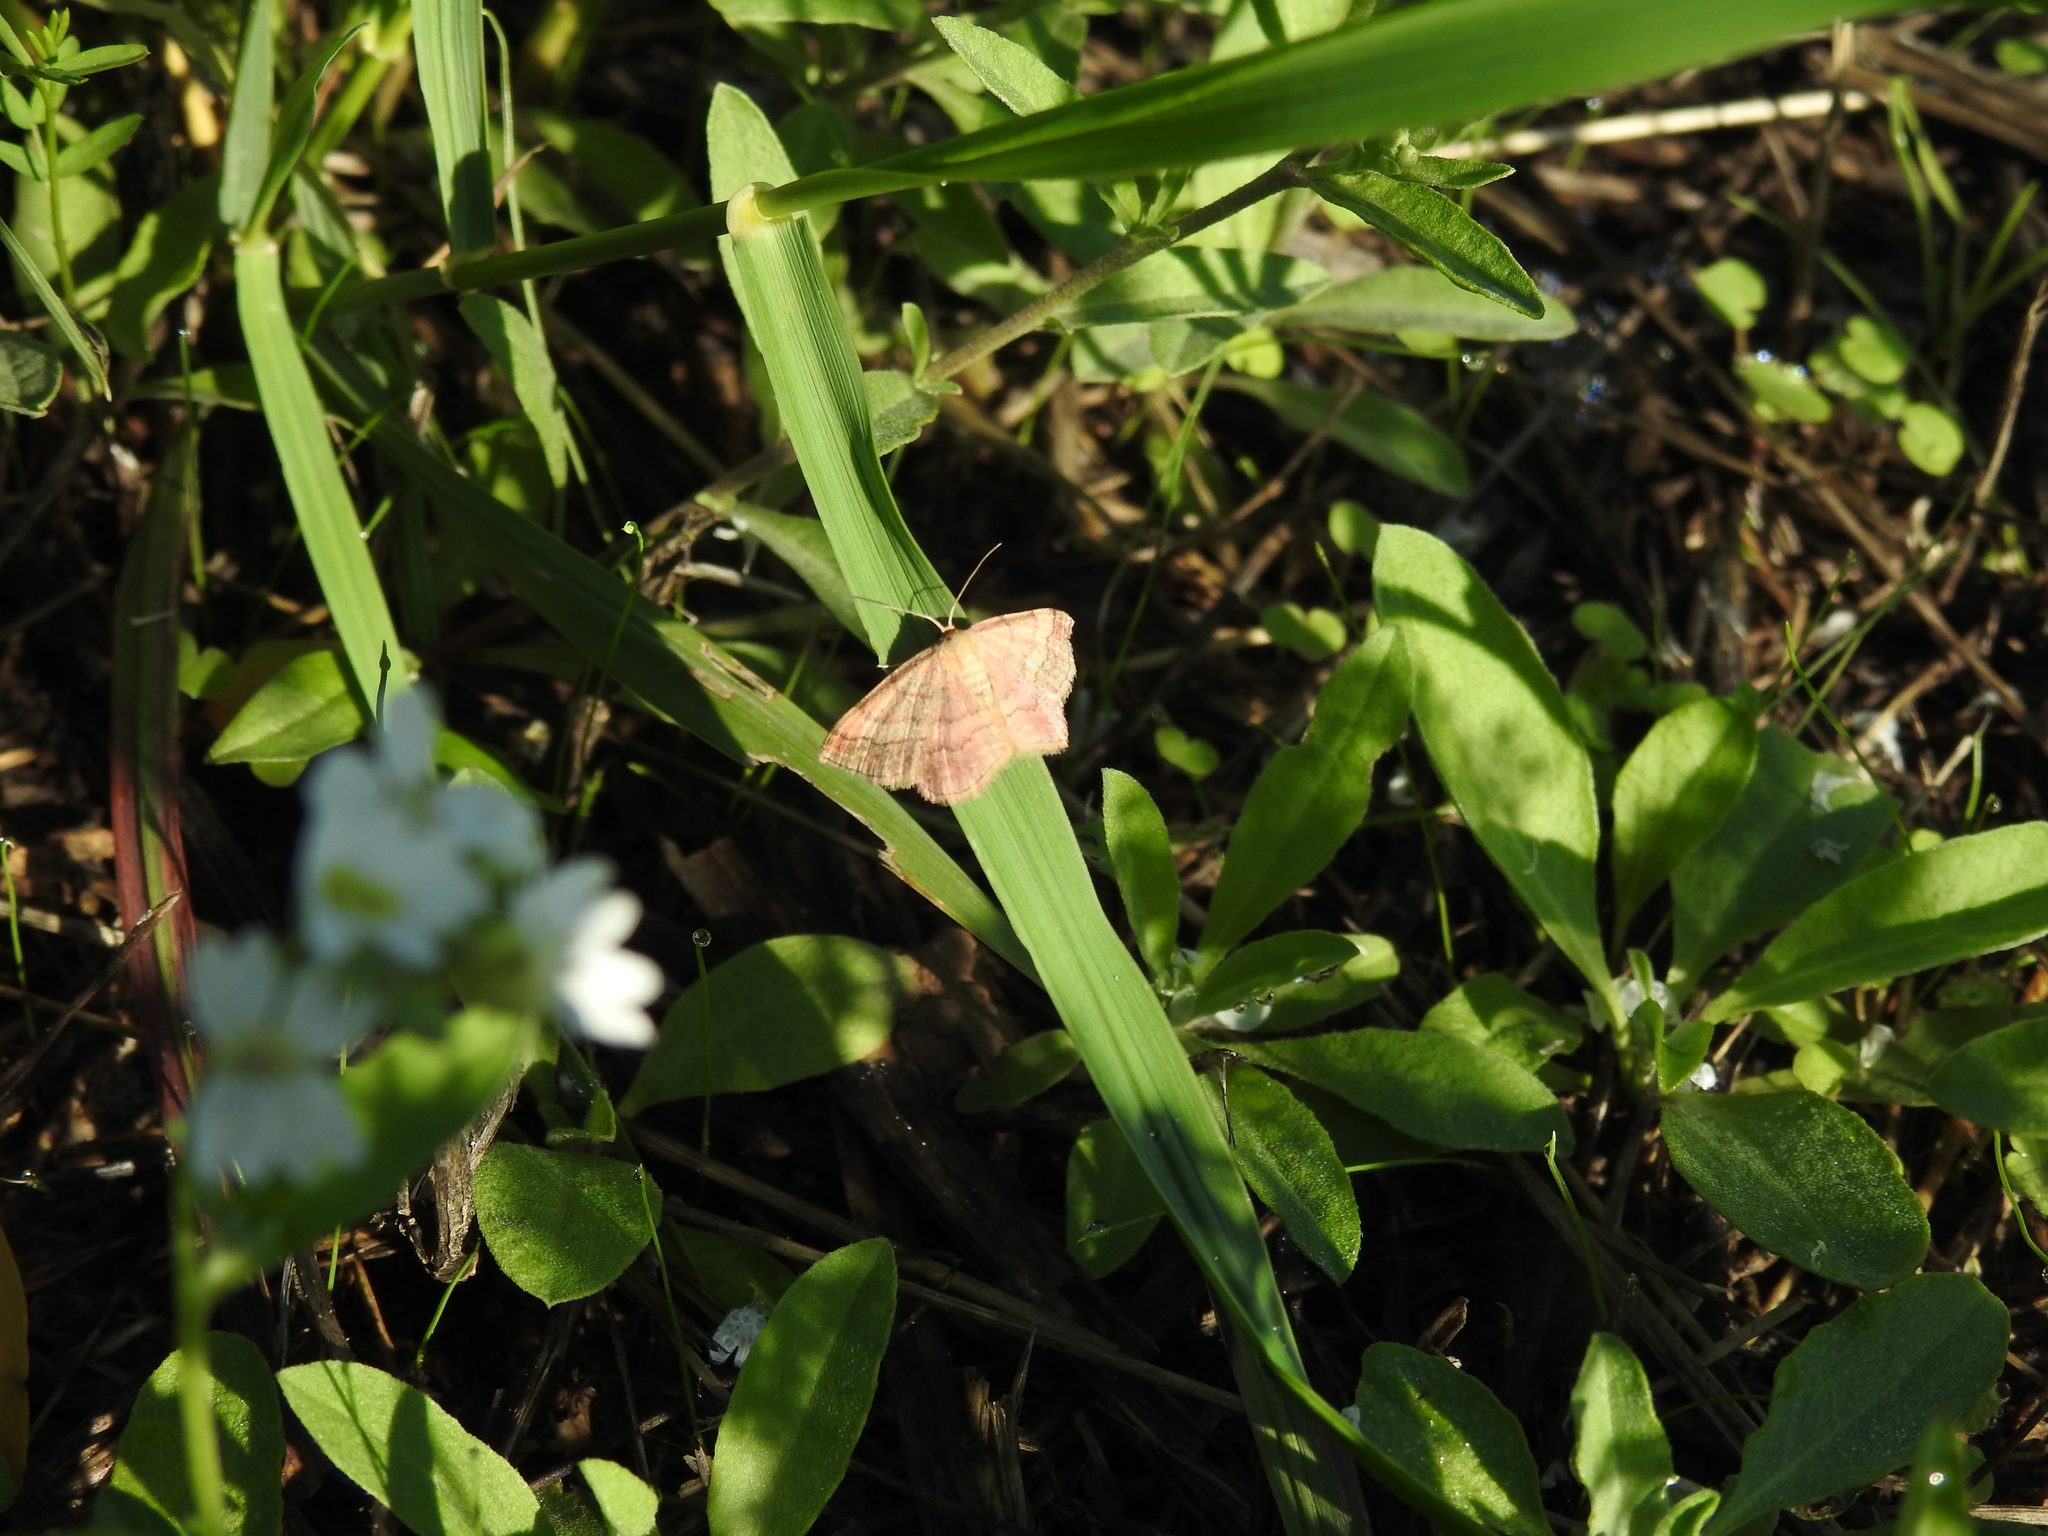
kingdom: Animalia
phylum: Arthropoda
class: Insecta
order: Lepidoptera
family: Geometridae
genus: Scopula
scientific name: Scopula rubiginata
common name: Tawny wave
